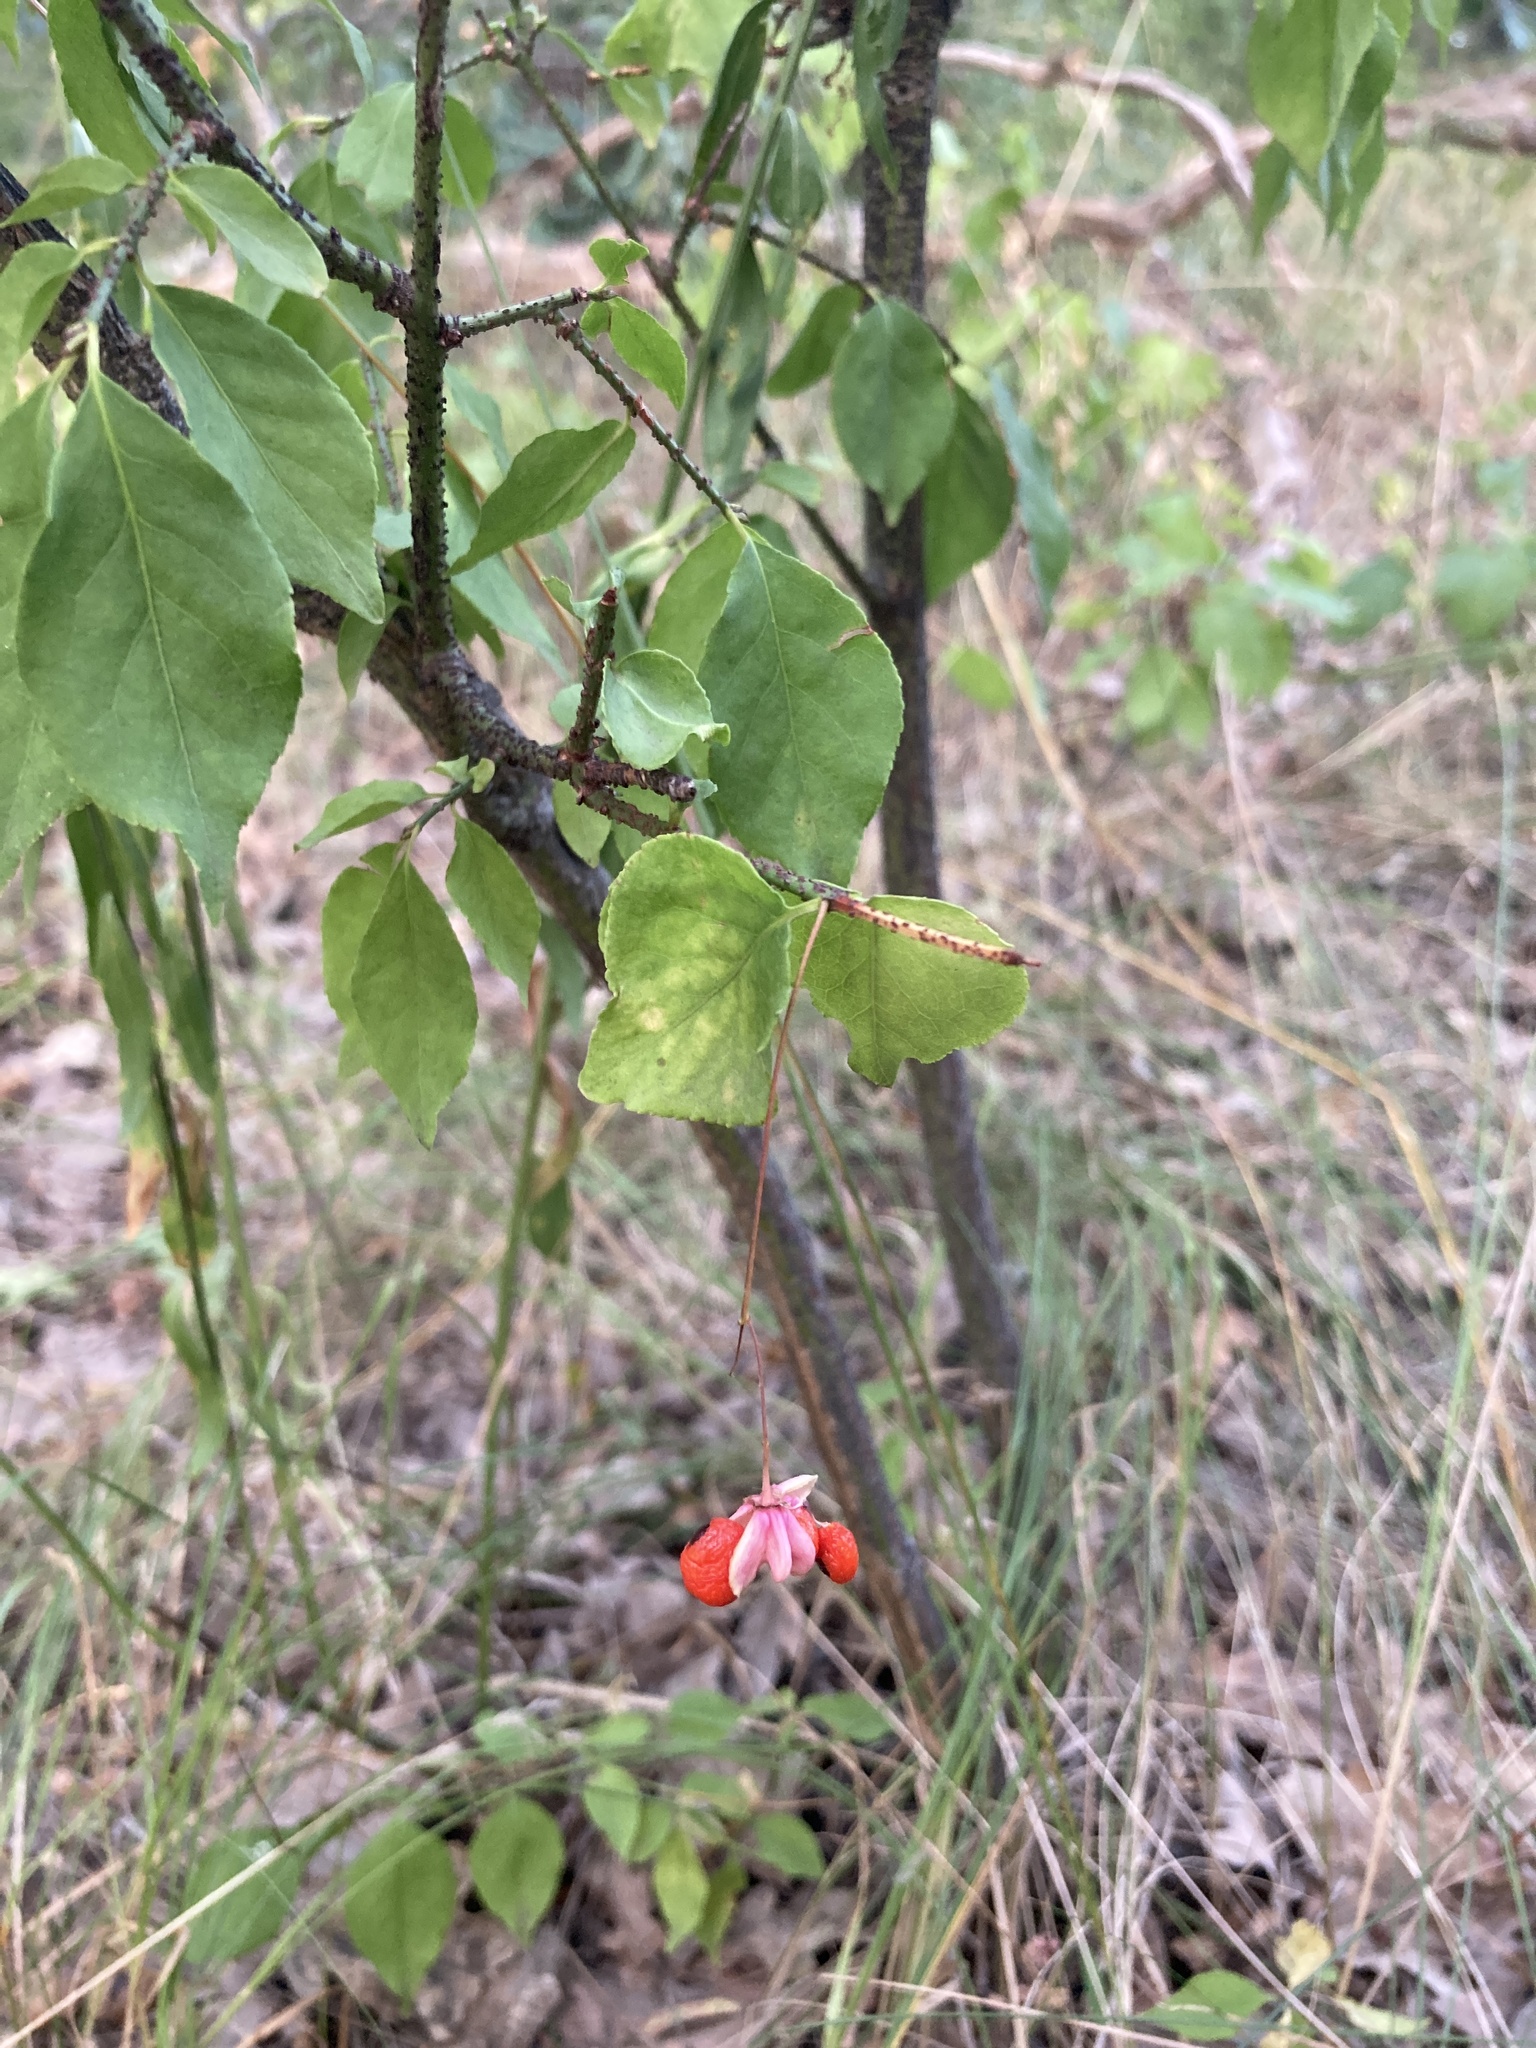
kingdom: Plantae
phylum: Tracheophyta
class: Magnoliopsida
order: Celastrales
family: Celastraceae
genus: Euonymus
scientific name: Euonymus verrucosus
